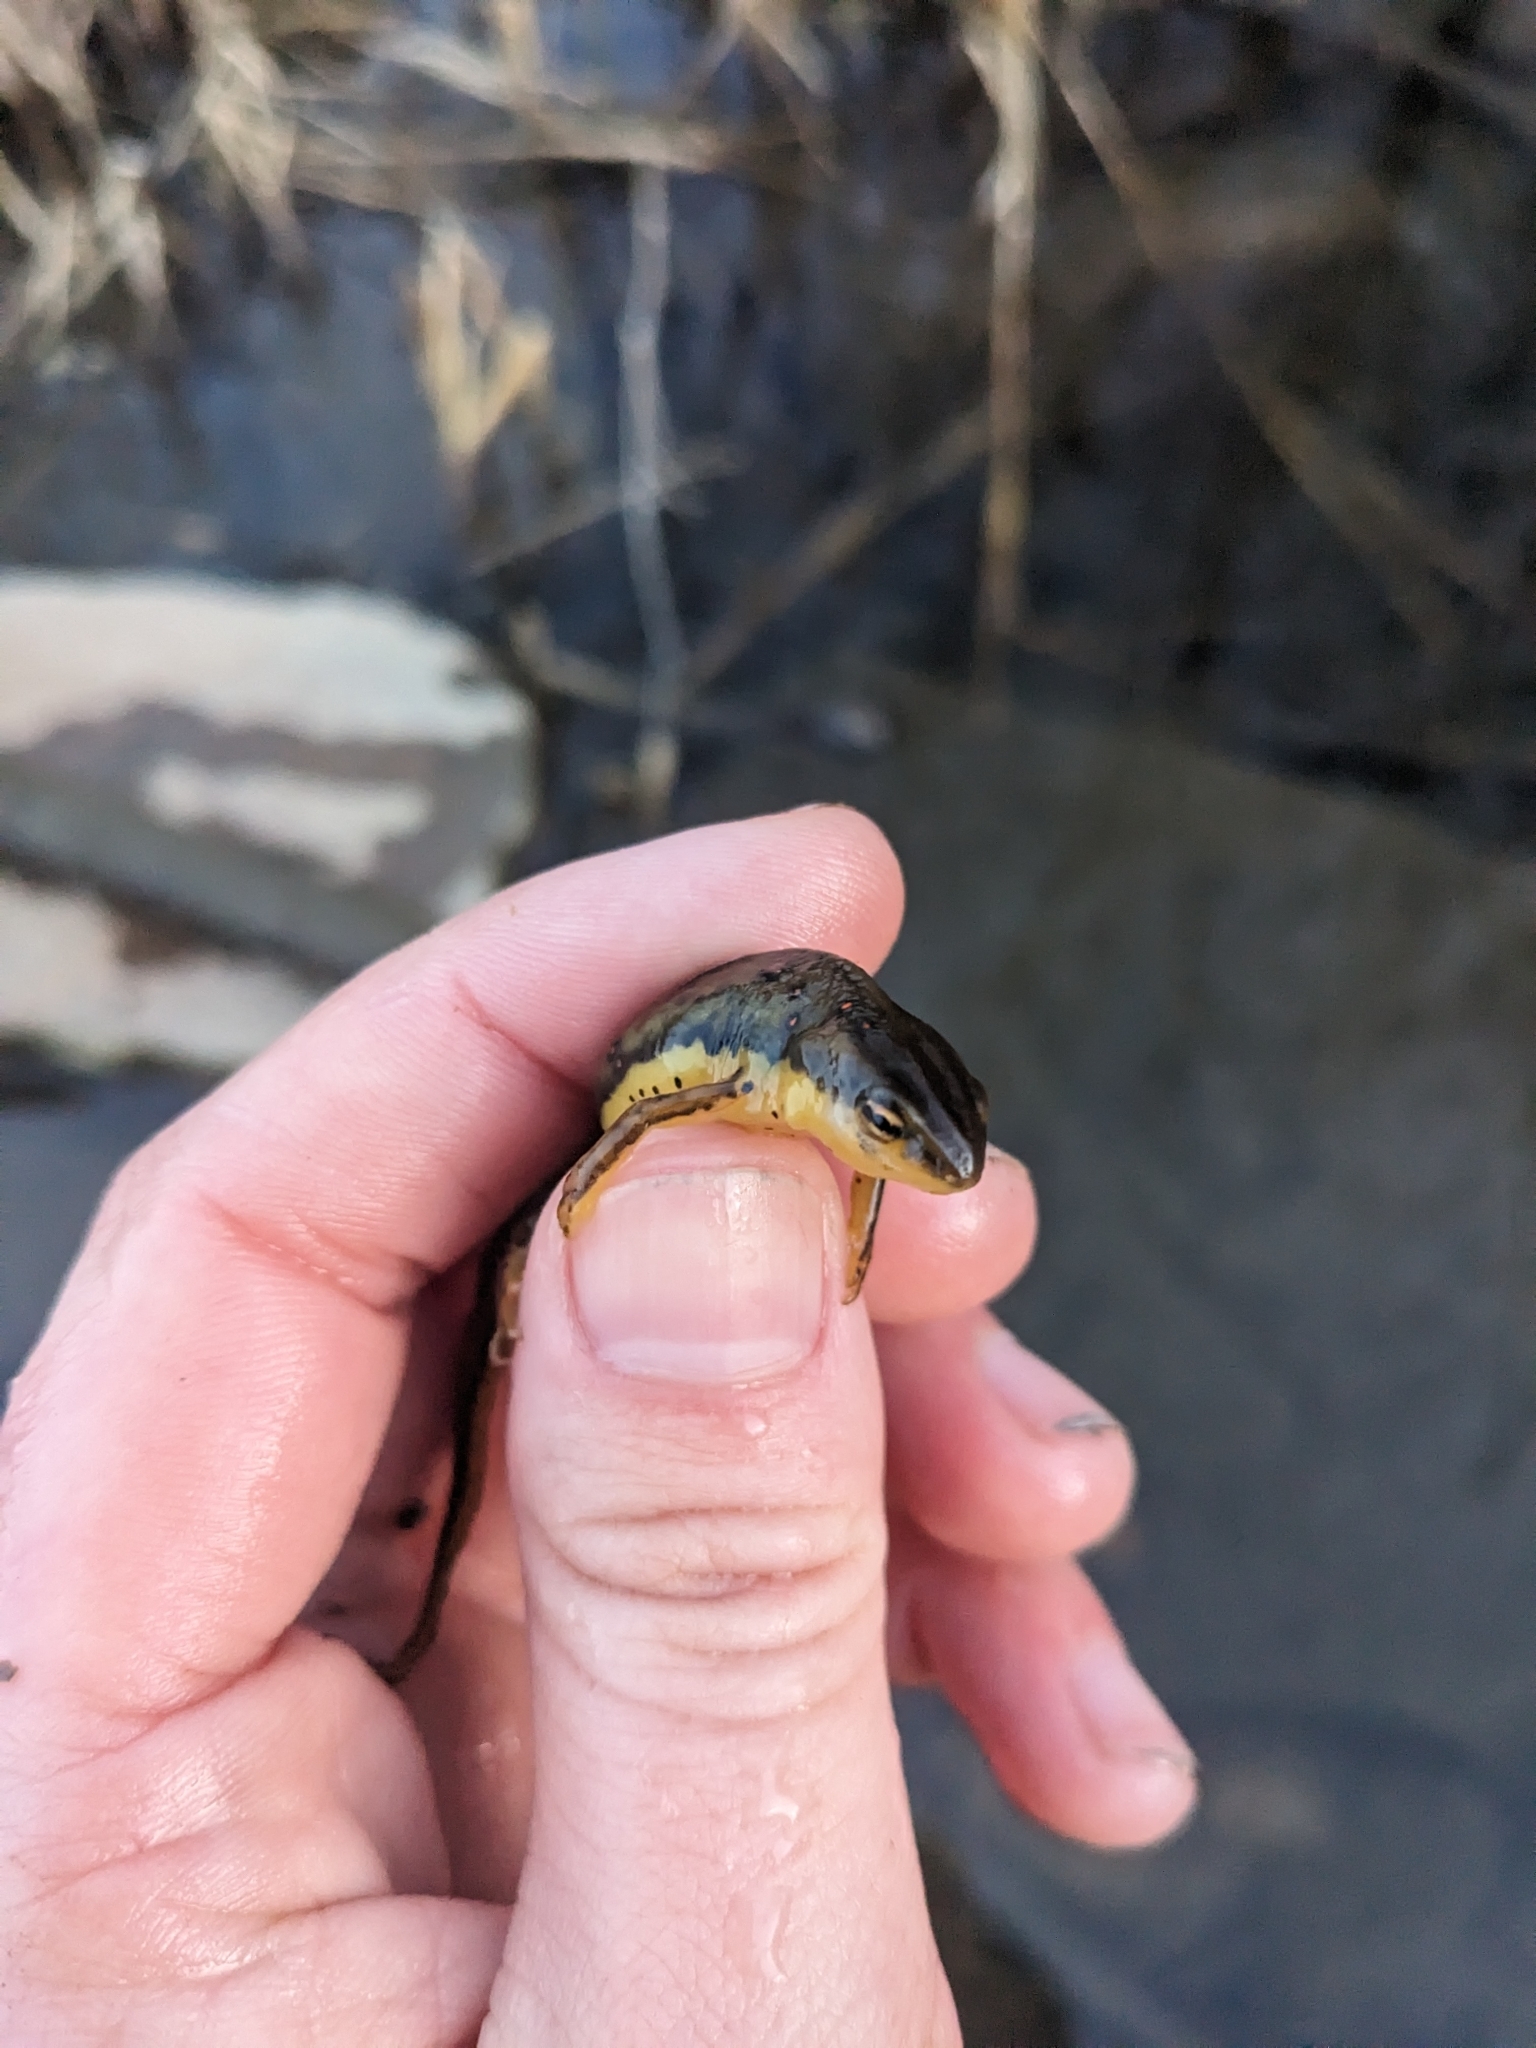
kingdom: Animalia
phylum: Chordata
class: Amphibia
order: Caudata
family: Salamandridae
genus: Notophthalmus
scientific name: Notophthalmus viridescens
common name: Eastern newt
